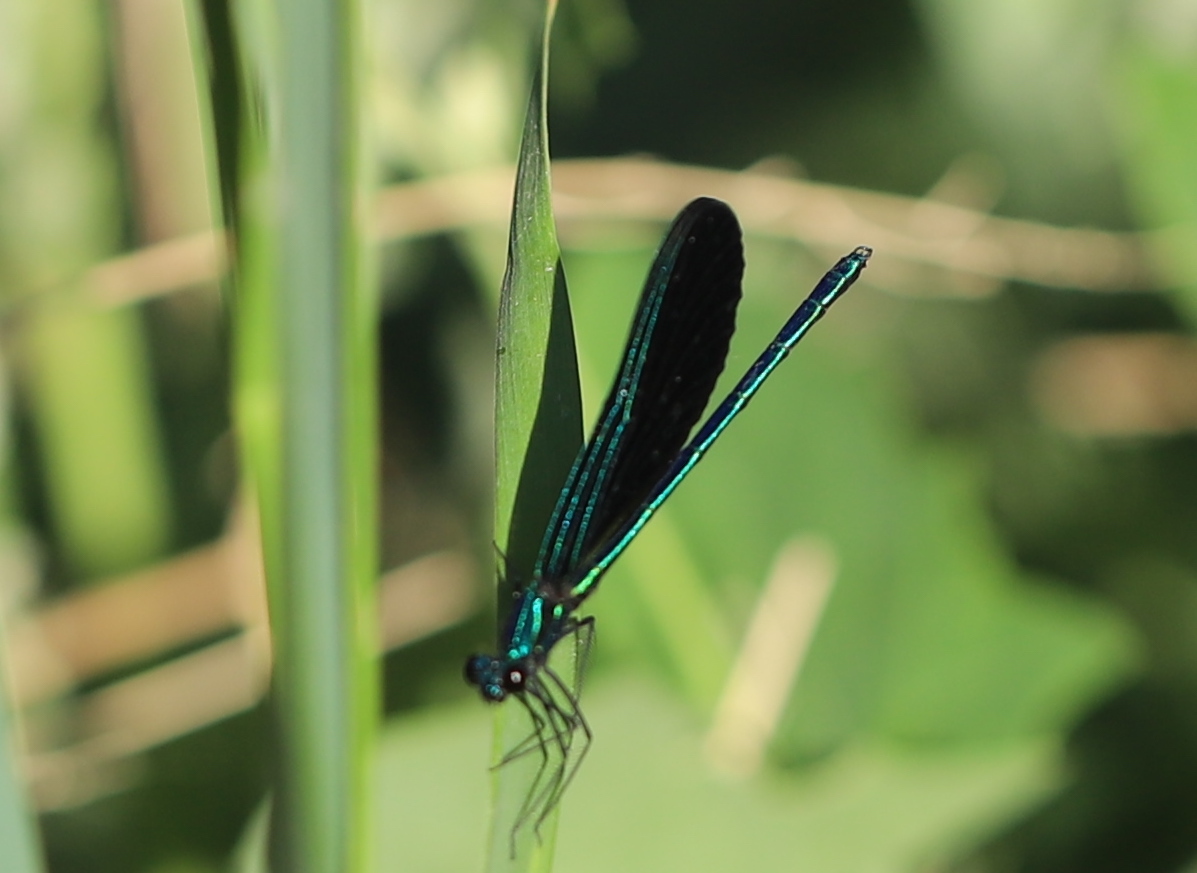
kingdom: Animalia
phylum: Arthropoda
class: Insecta
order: Odonata
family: Calopterygidae
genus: Calopteryx
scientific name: Calopteryx maculata
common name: Ebony jewelwing
